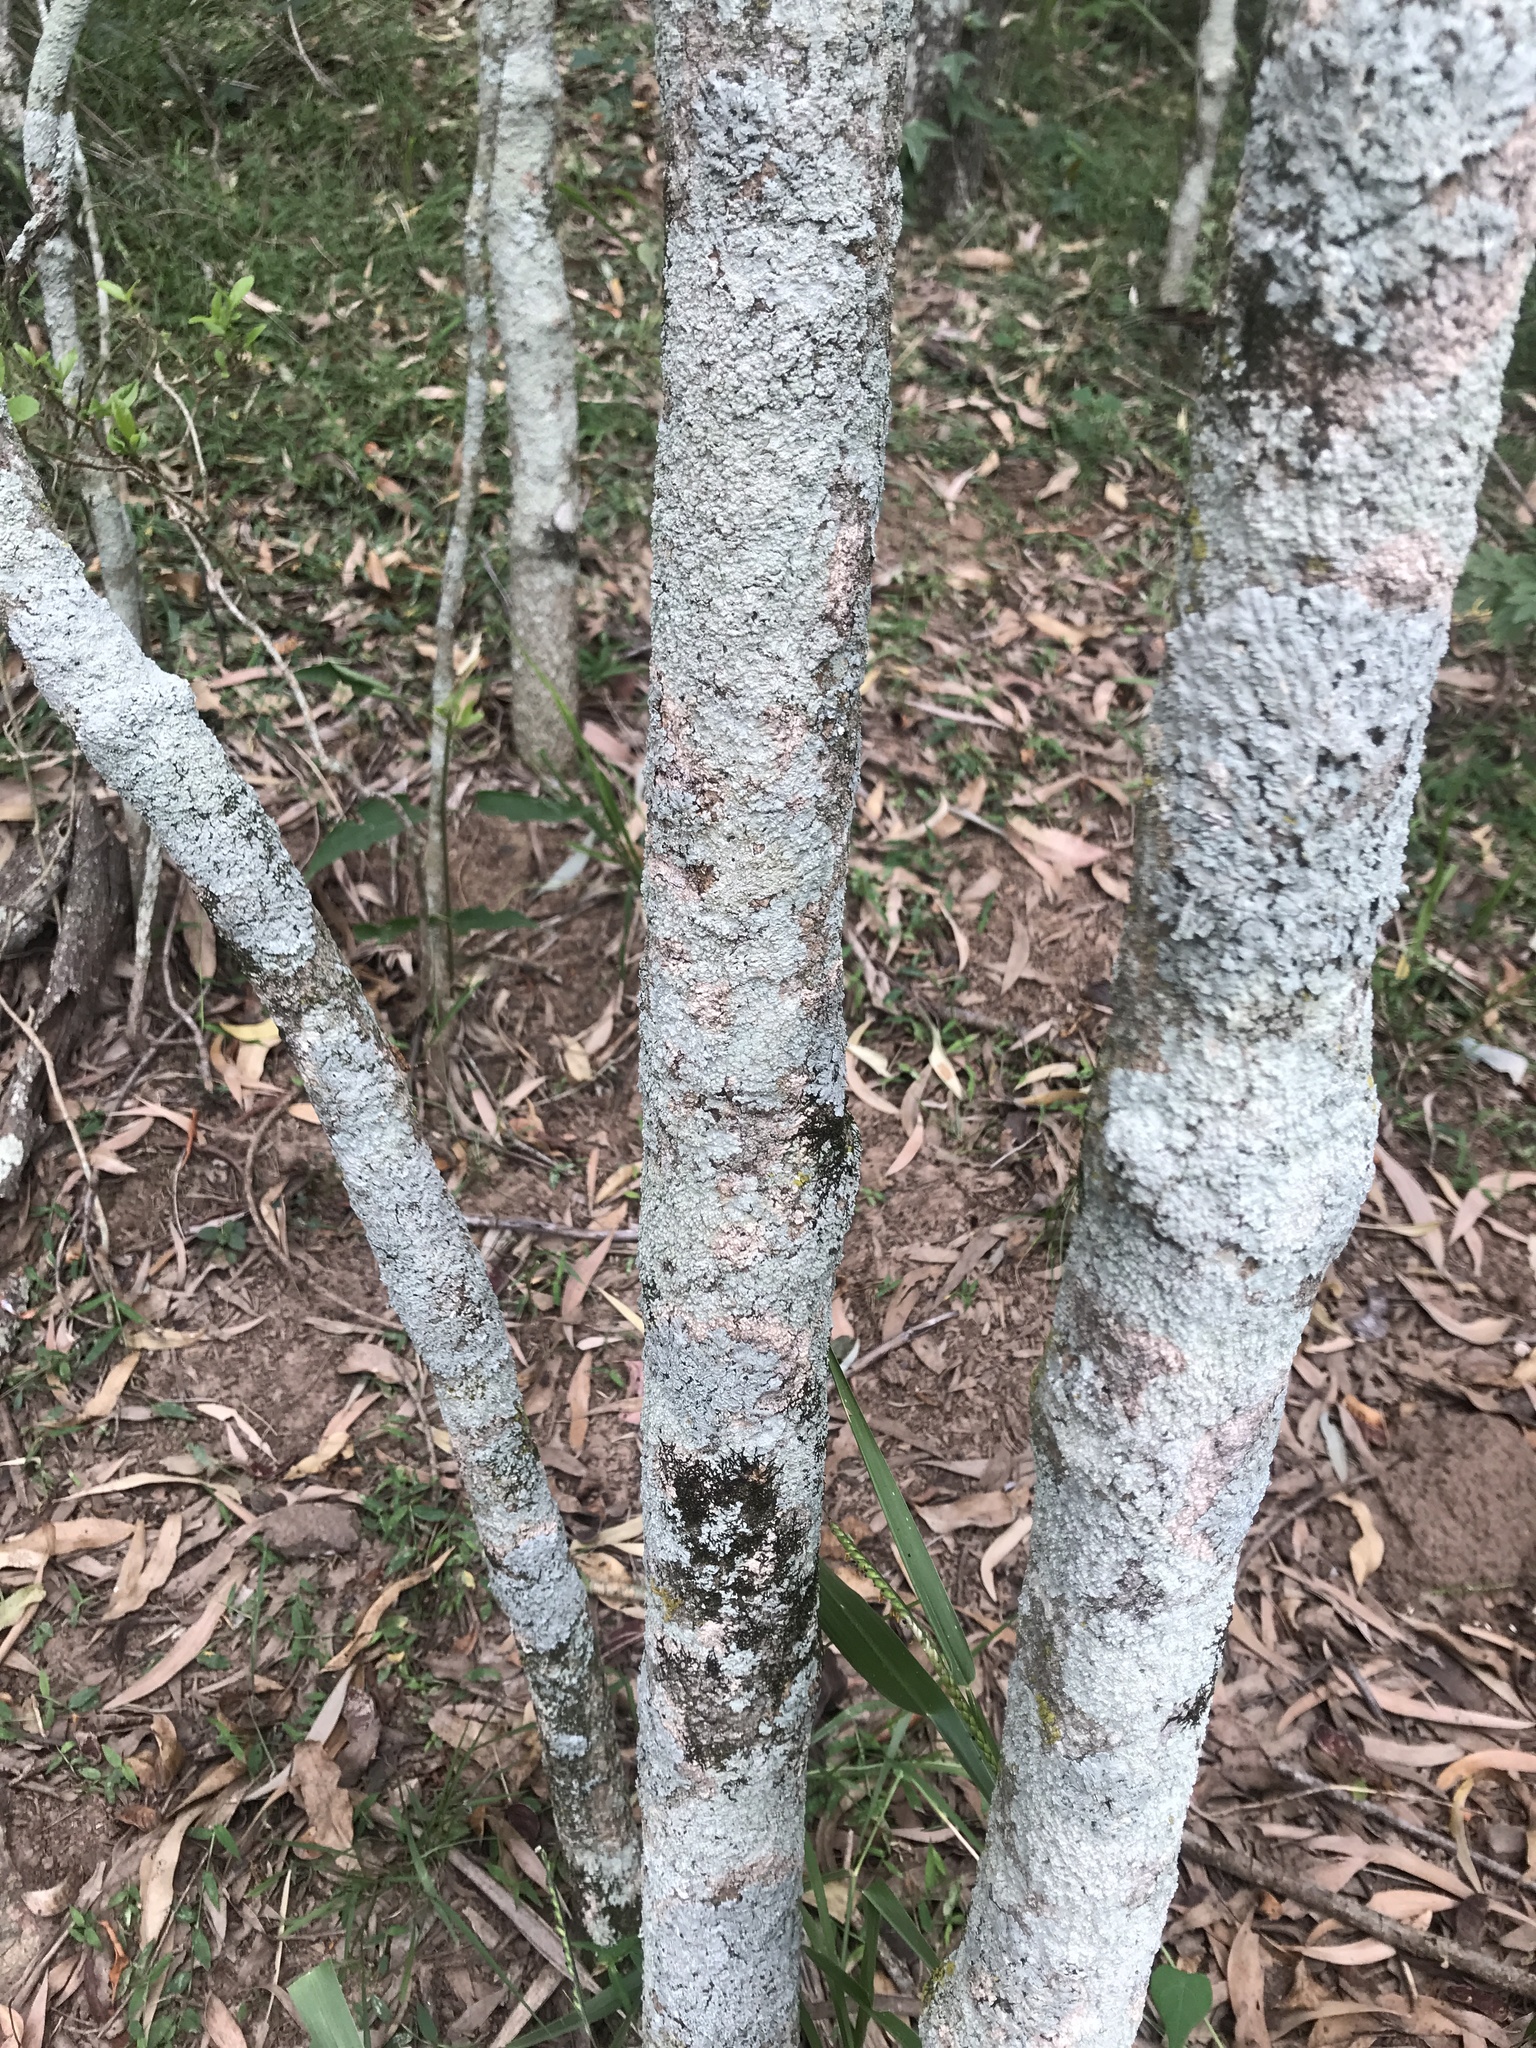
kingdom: Plantae
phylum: Tracheophyta
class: Magnoliopsida
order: Gentianales
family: Apocynaceae
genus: Alstonia
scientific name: Alstonia mollis
